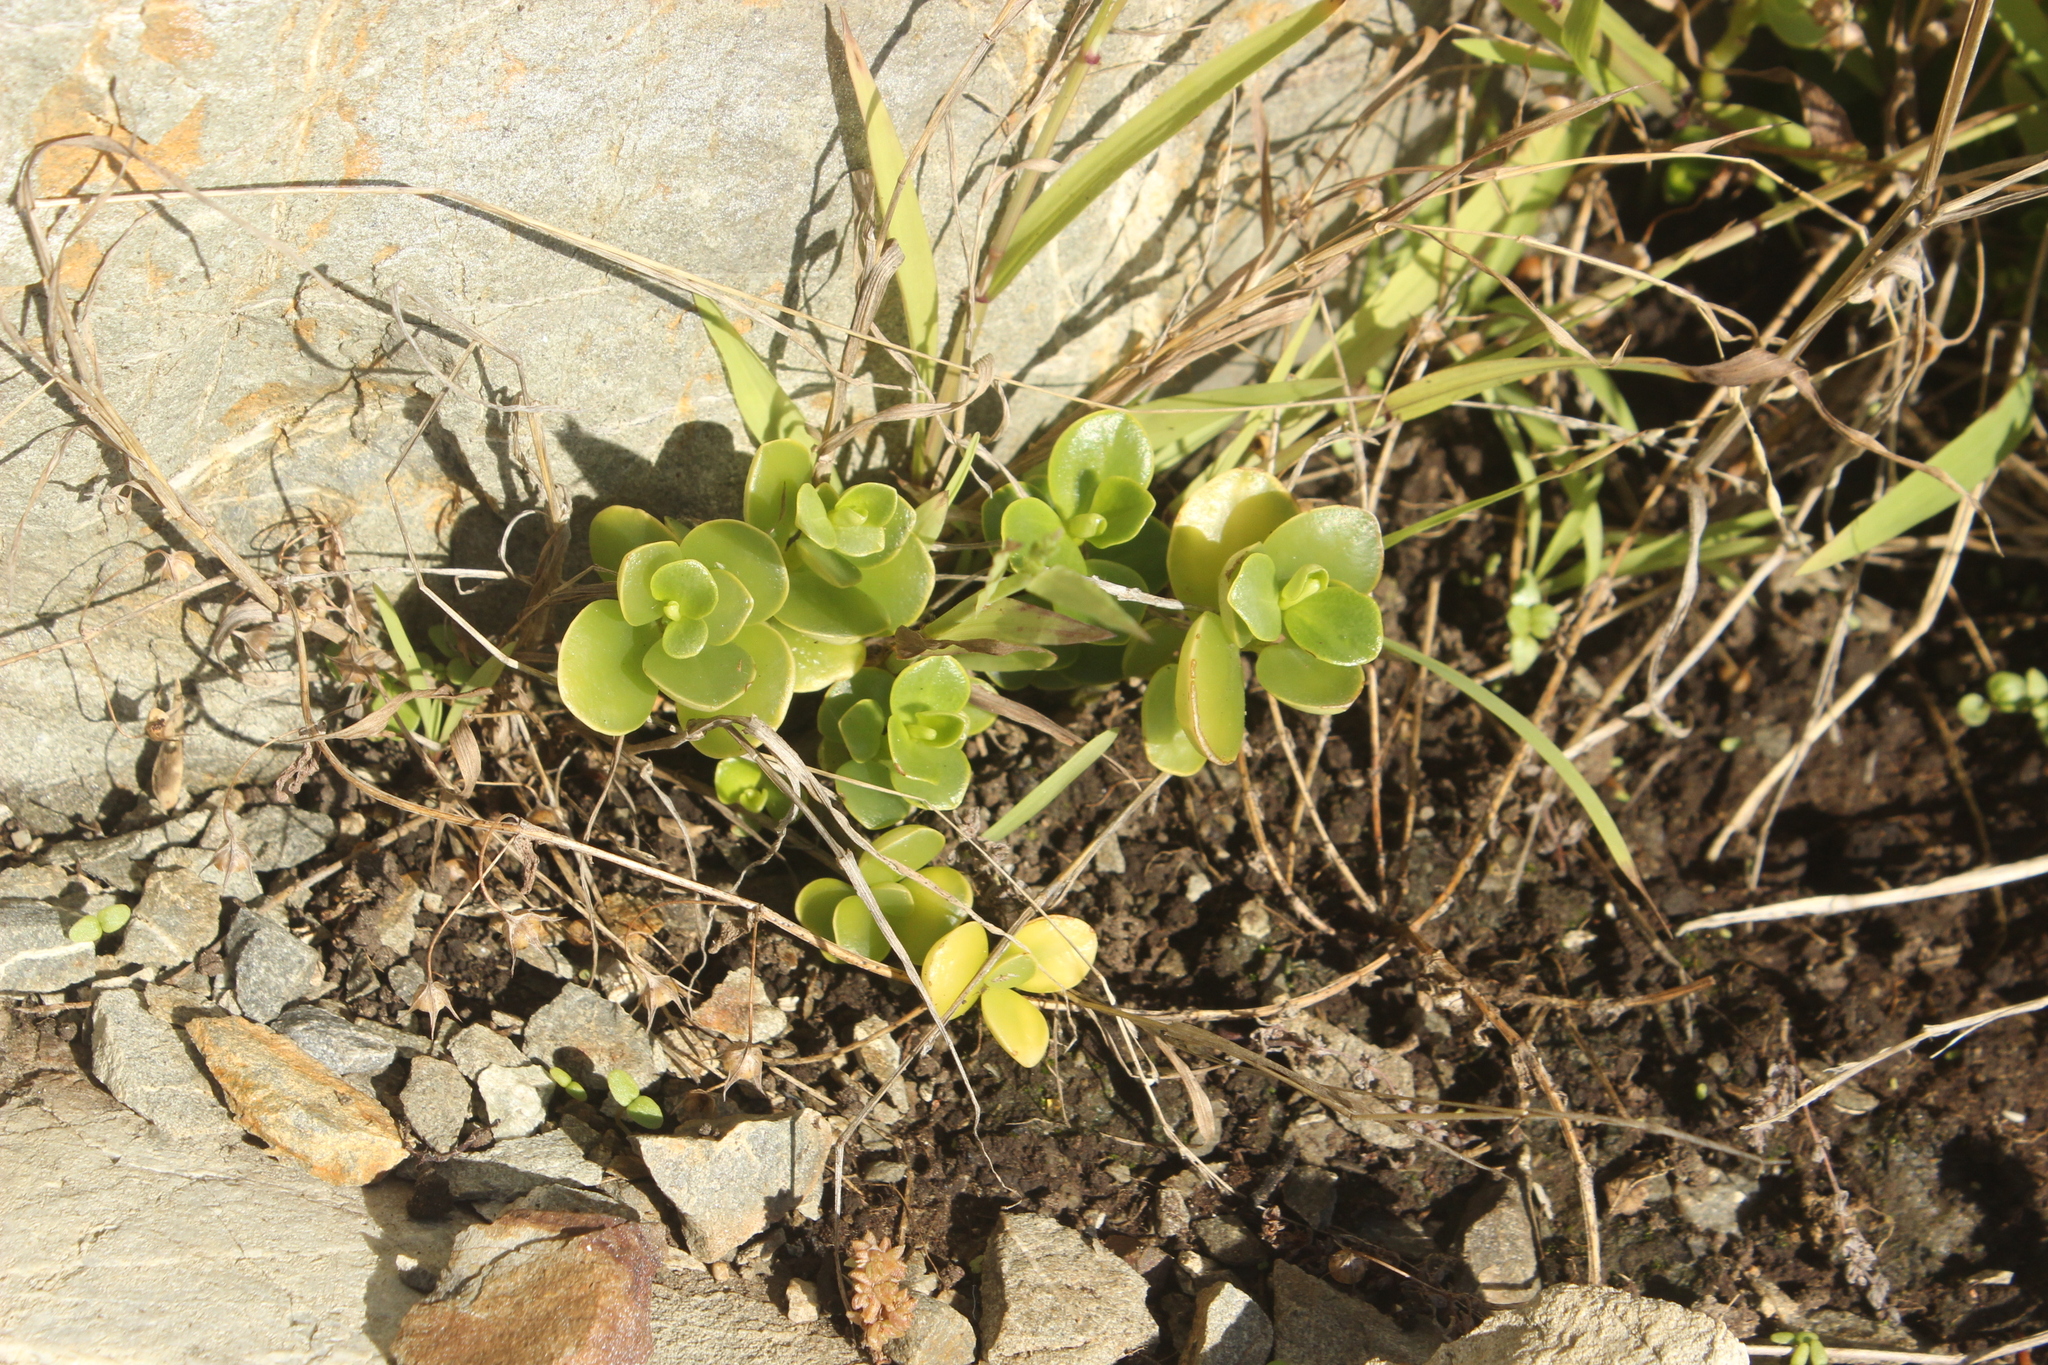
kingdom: Plantae
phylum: Tracheophyta
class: Magnoliopsida
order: Piperales
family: Piperaceae
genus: Peperomia
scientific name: Peperomia urvilleana
